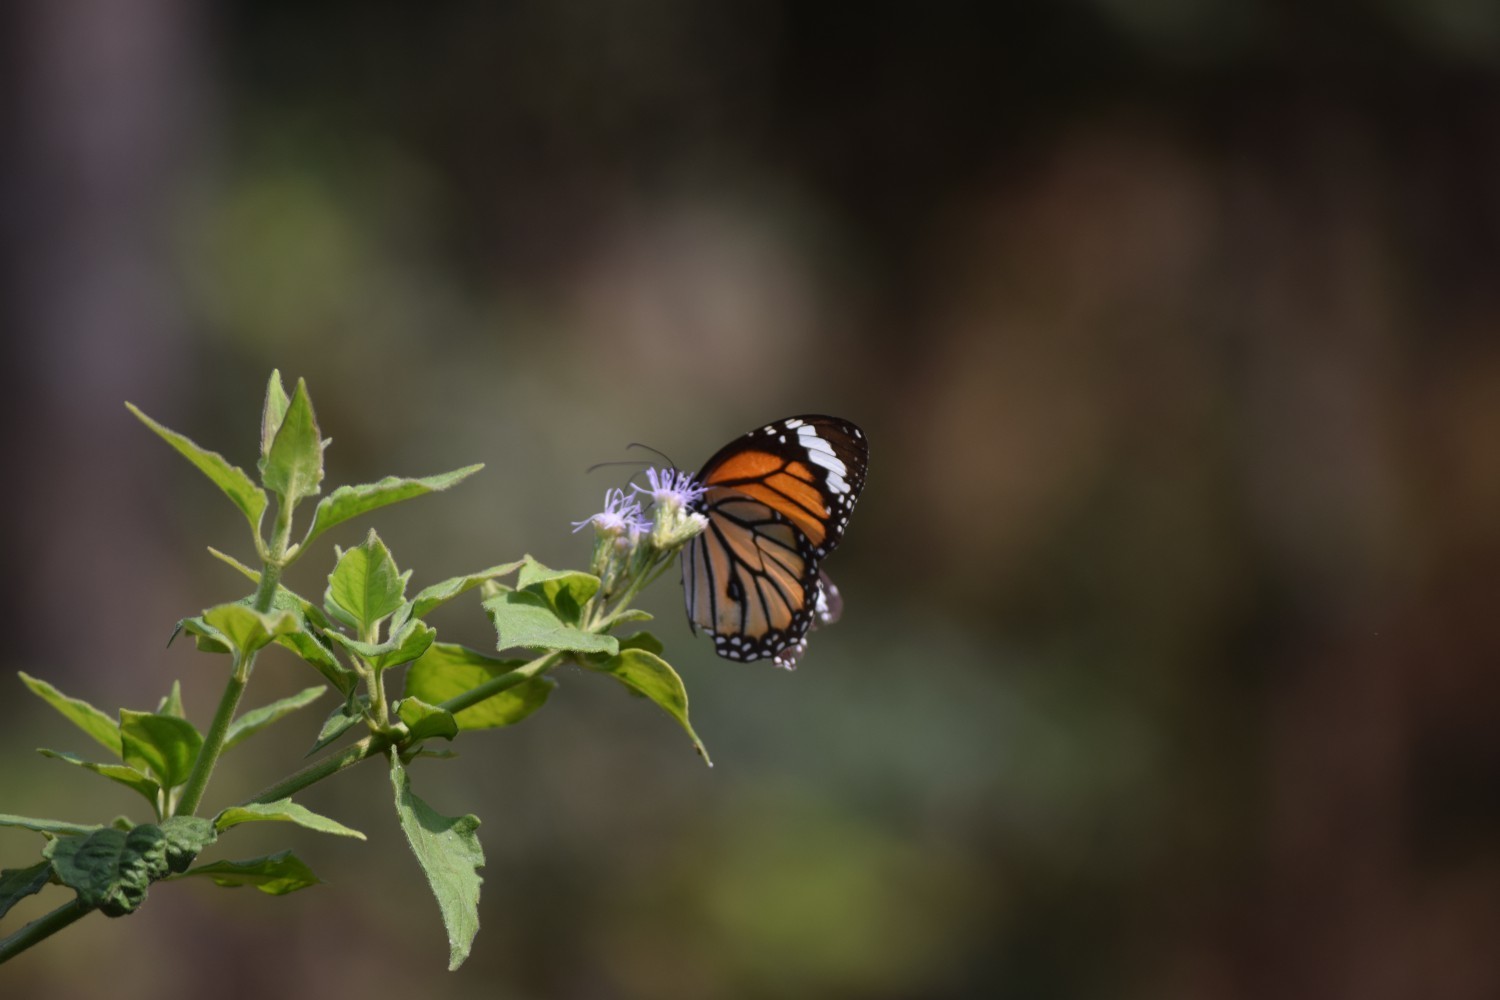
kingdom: Animalia
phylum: Arthropoda
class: Insecta
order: Lepidoptera
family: Nymphalidae
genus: Danaus
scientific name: Danaus genutia
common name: Common tiger butterfly
